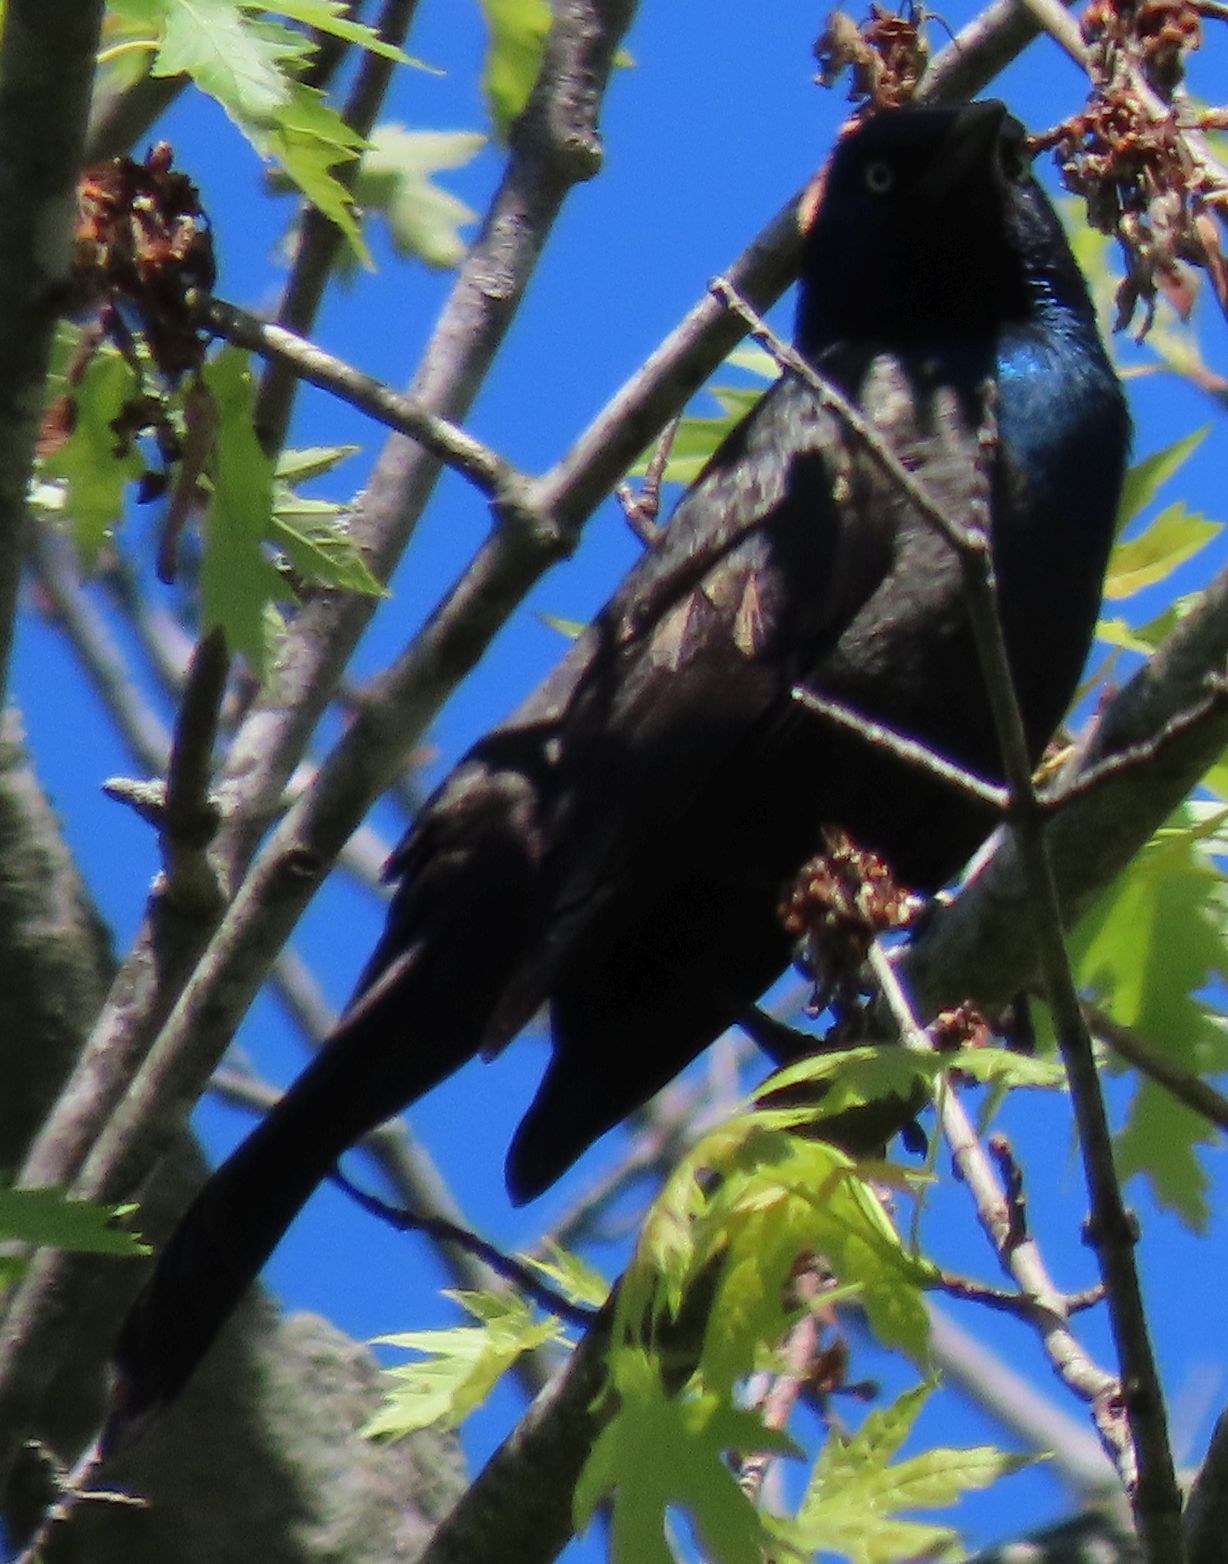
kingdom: Animalia
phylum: Chordata
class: Aves
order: Passeriformes
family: Icteridae
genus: Quiscalus
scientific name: Quiscalus quiscula
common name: Common grackle
